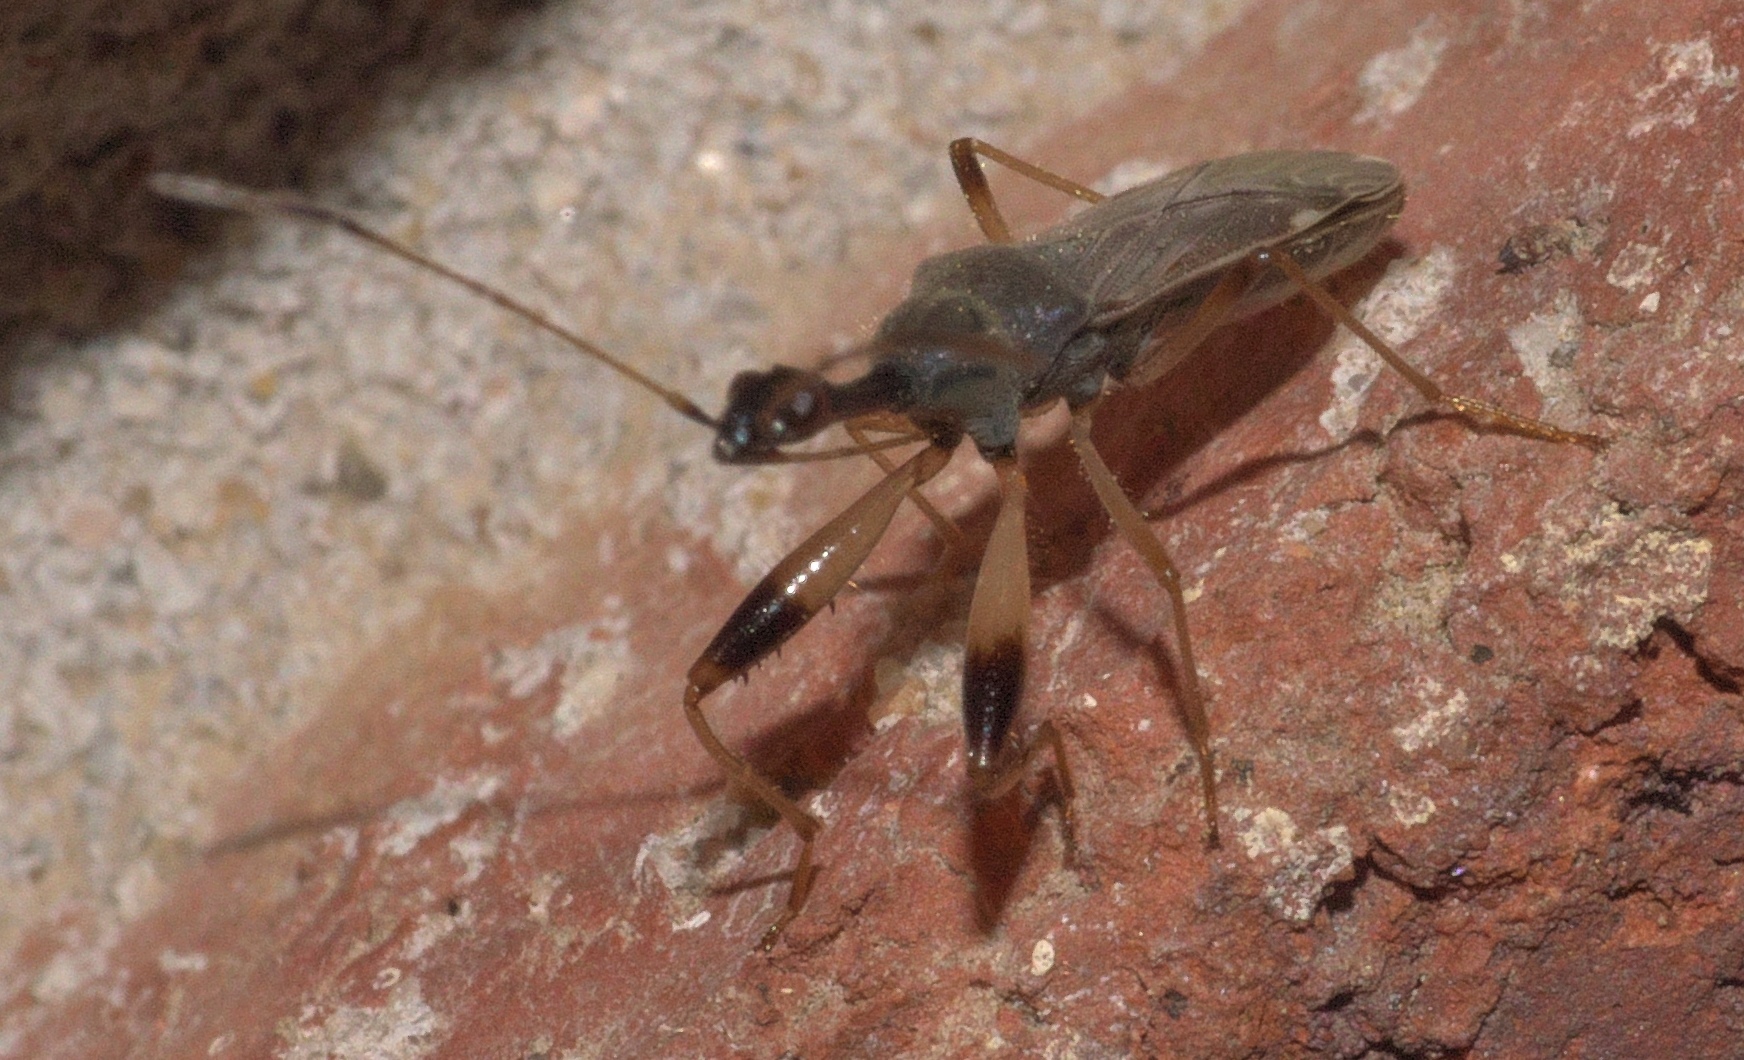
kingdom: Animalia
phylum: Arthropoda
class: Insecta
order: Hemiptera
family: Rhyparochromidae
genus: Myodocha
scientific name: Myodocha serripes
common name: Long-necked seed bug
